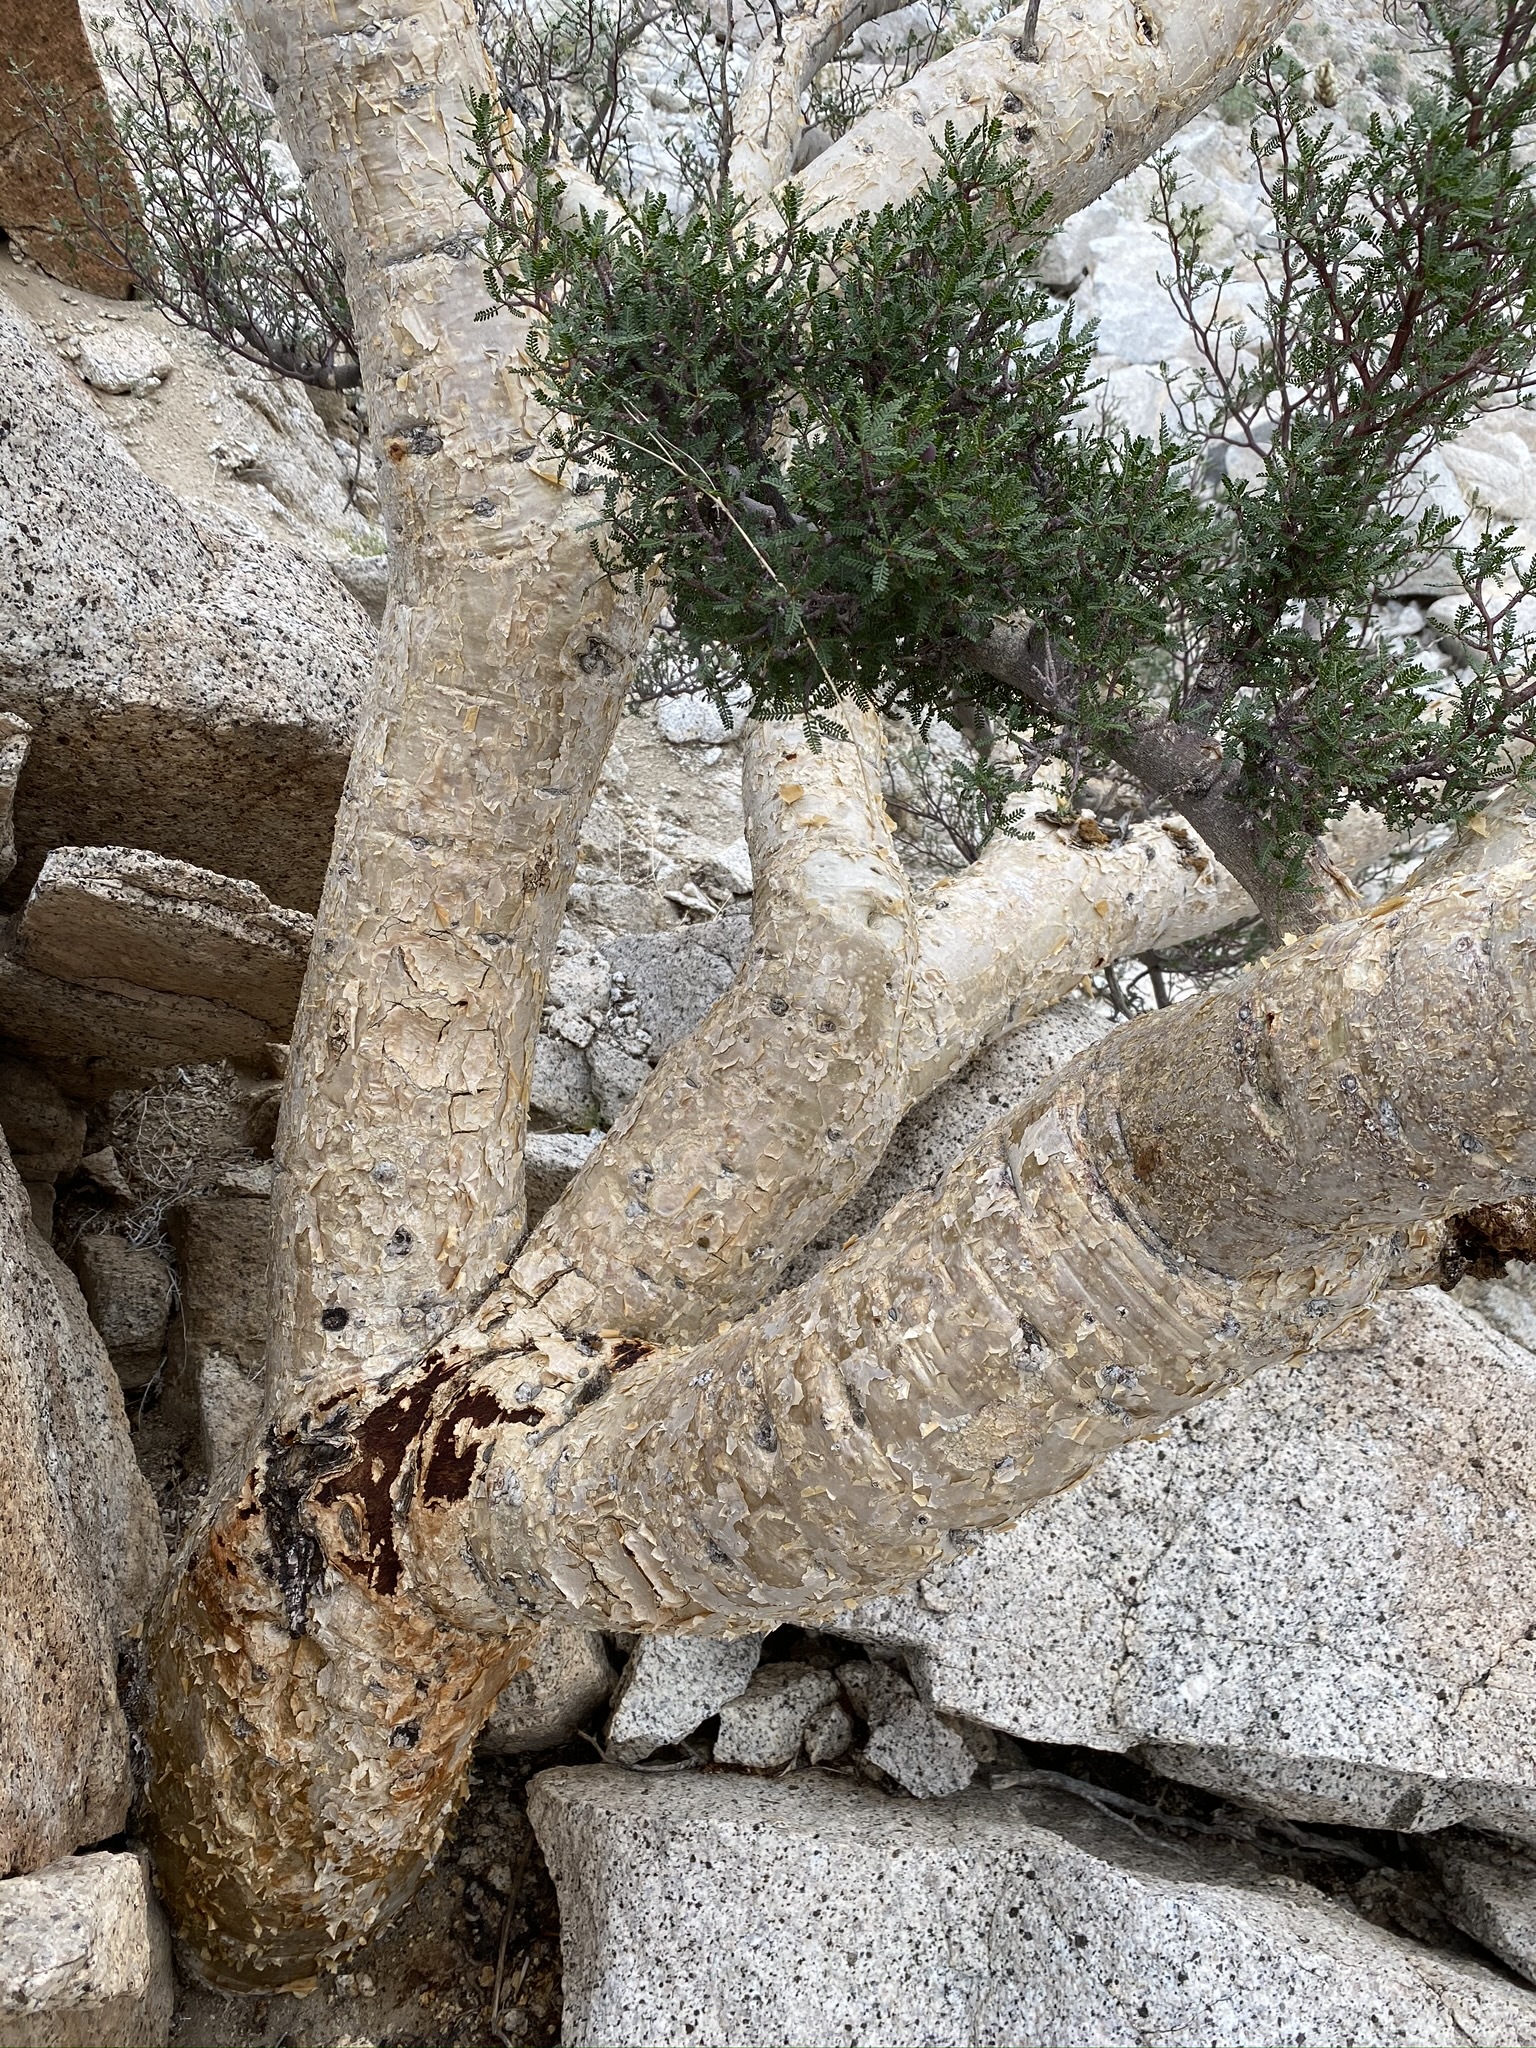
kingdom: Plantae
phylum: Tracheophyta
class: Magnoliopsida
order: Sapindales
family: Burseraceae
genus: Bursera
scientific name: Bursera microphylla
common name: Elephant tree
